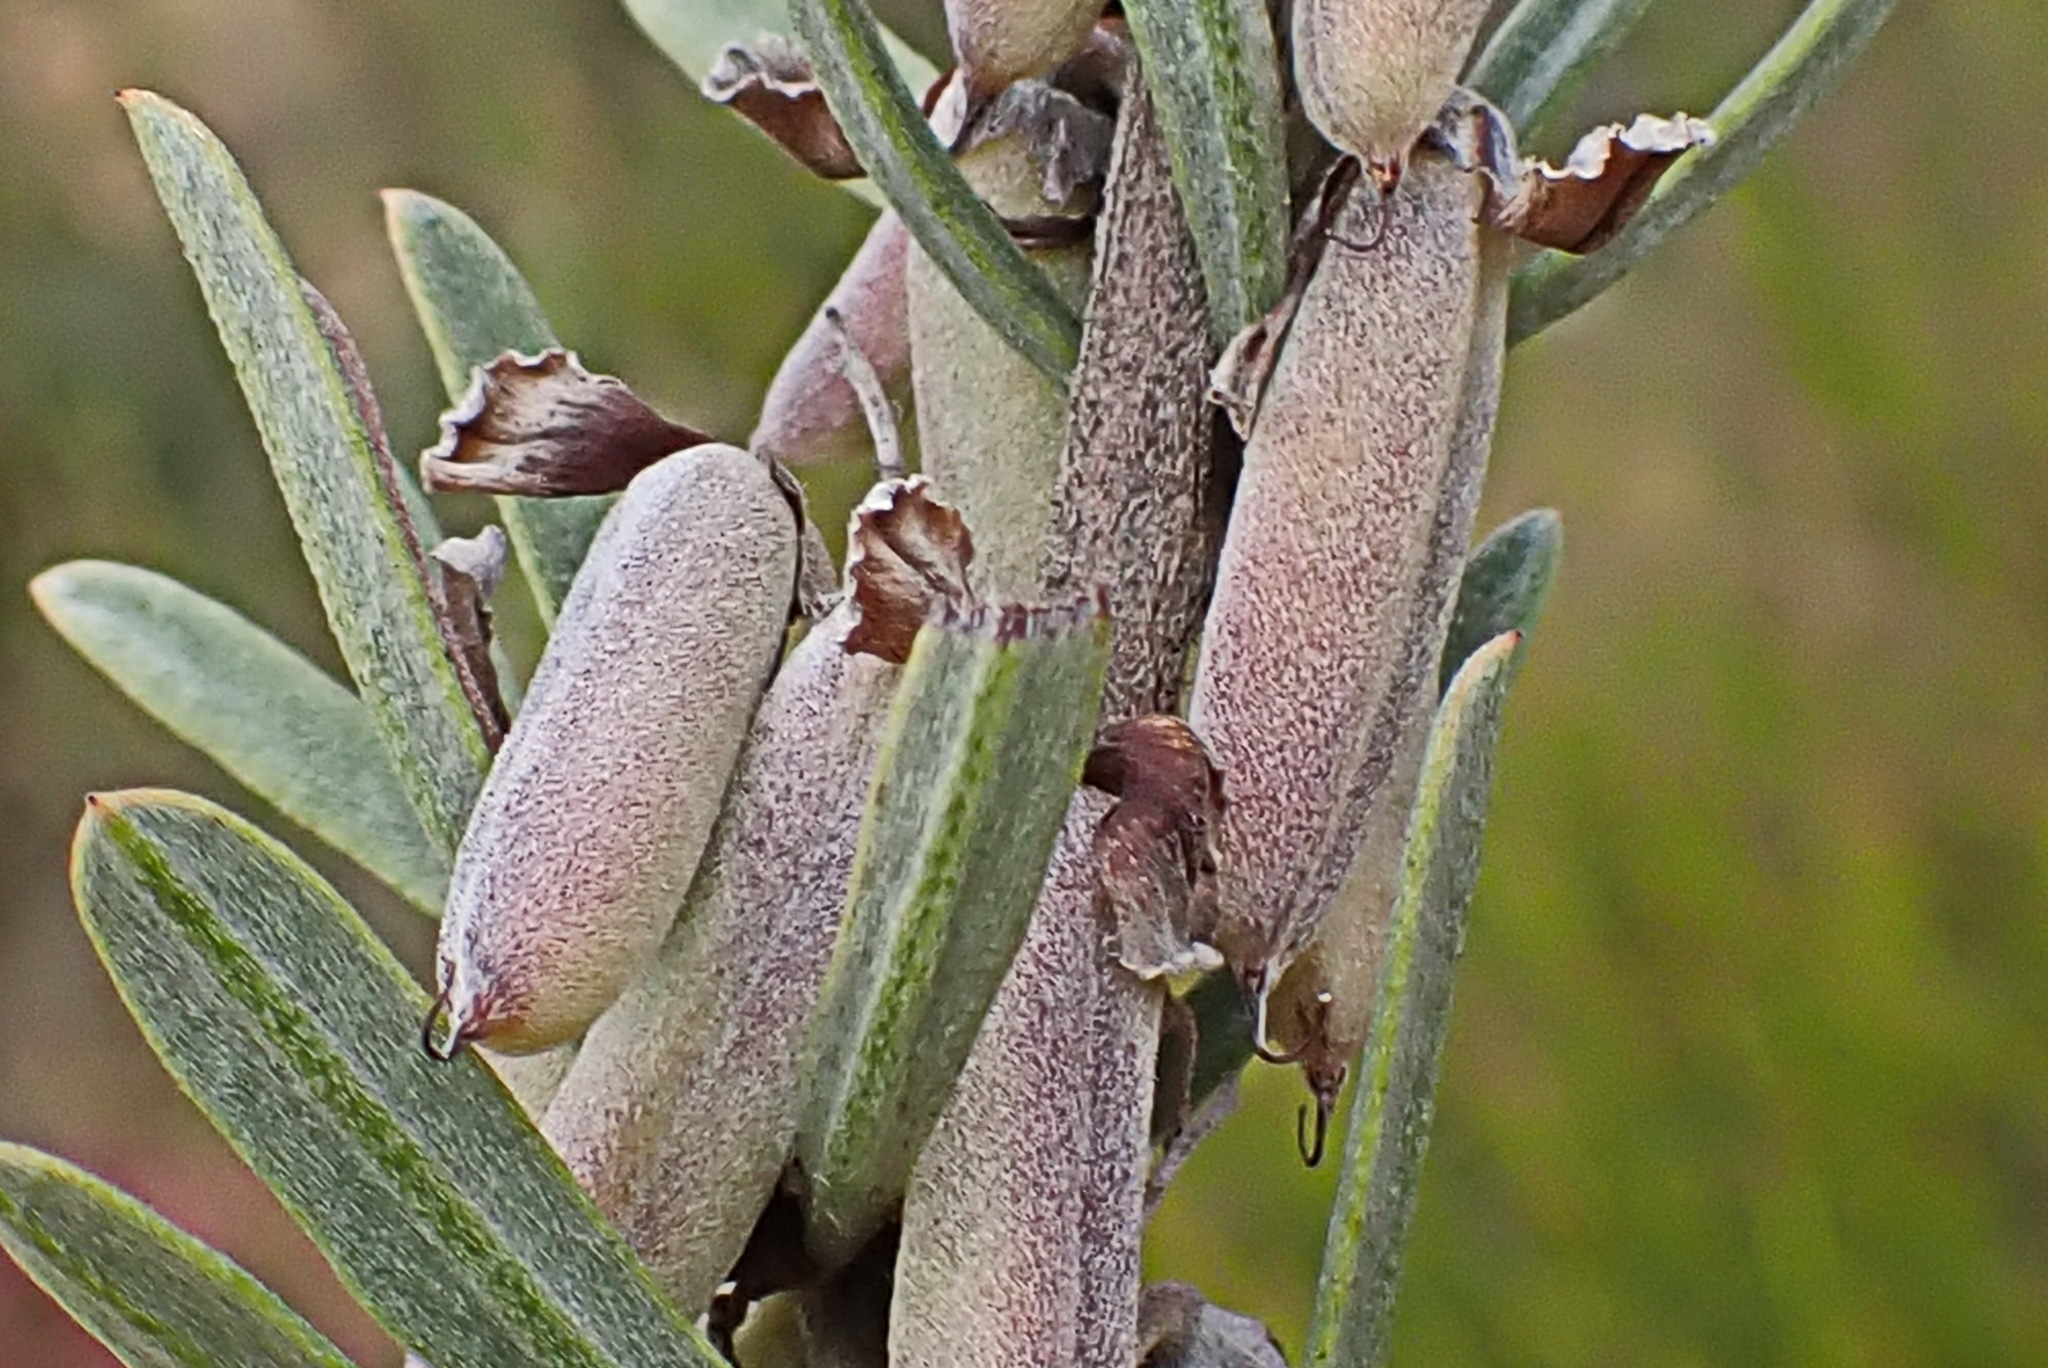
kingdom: Plantae
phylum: Tracheophyta
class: Magnoliopsida
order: Fabales
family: Fabaceae
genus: Indigofera
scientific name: Indigofera flabellata
